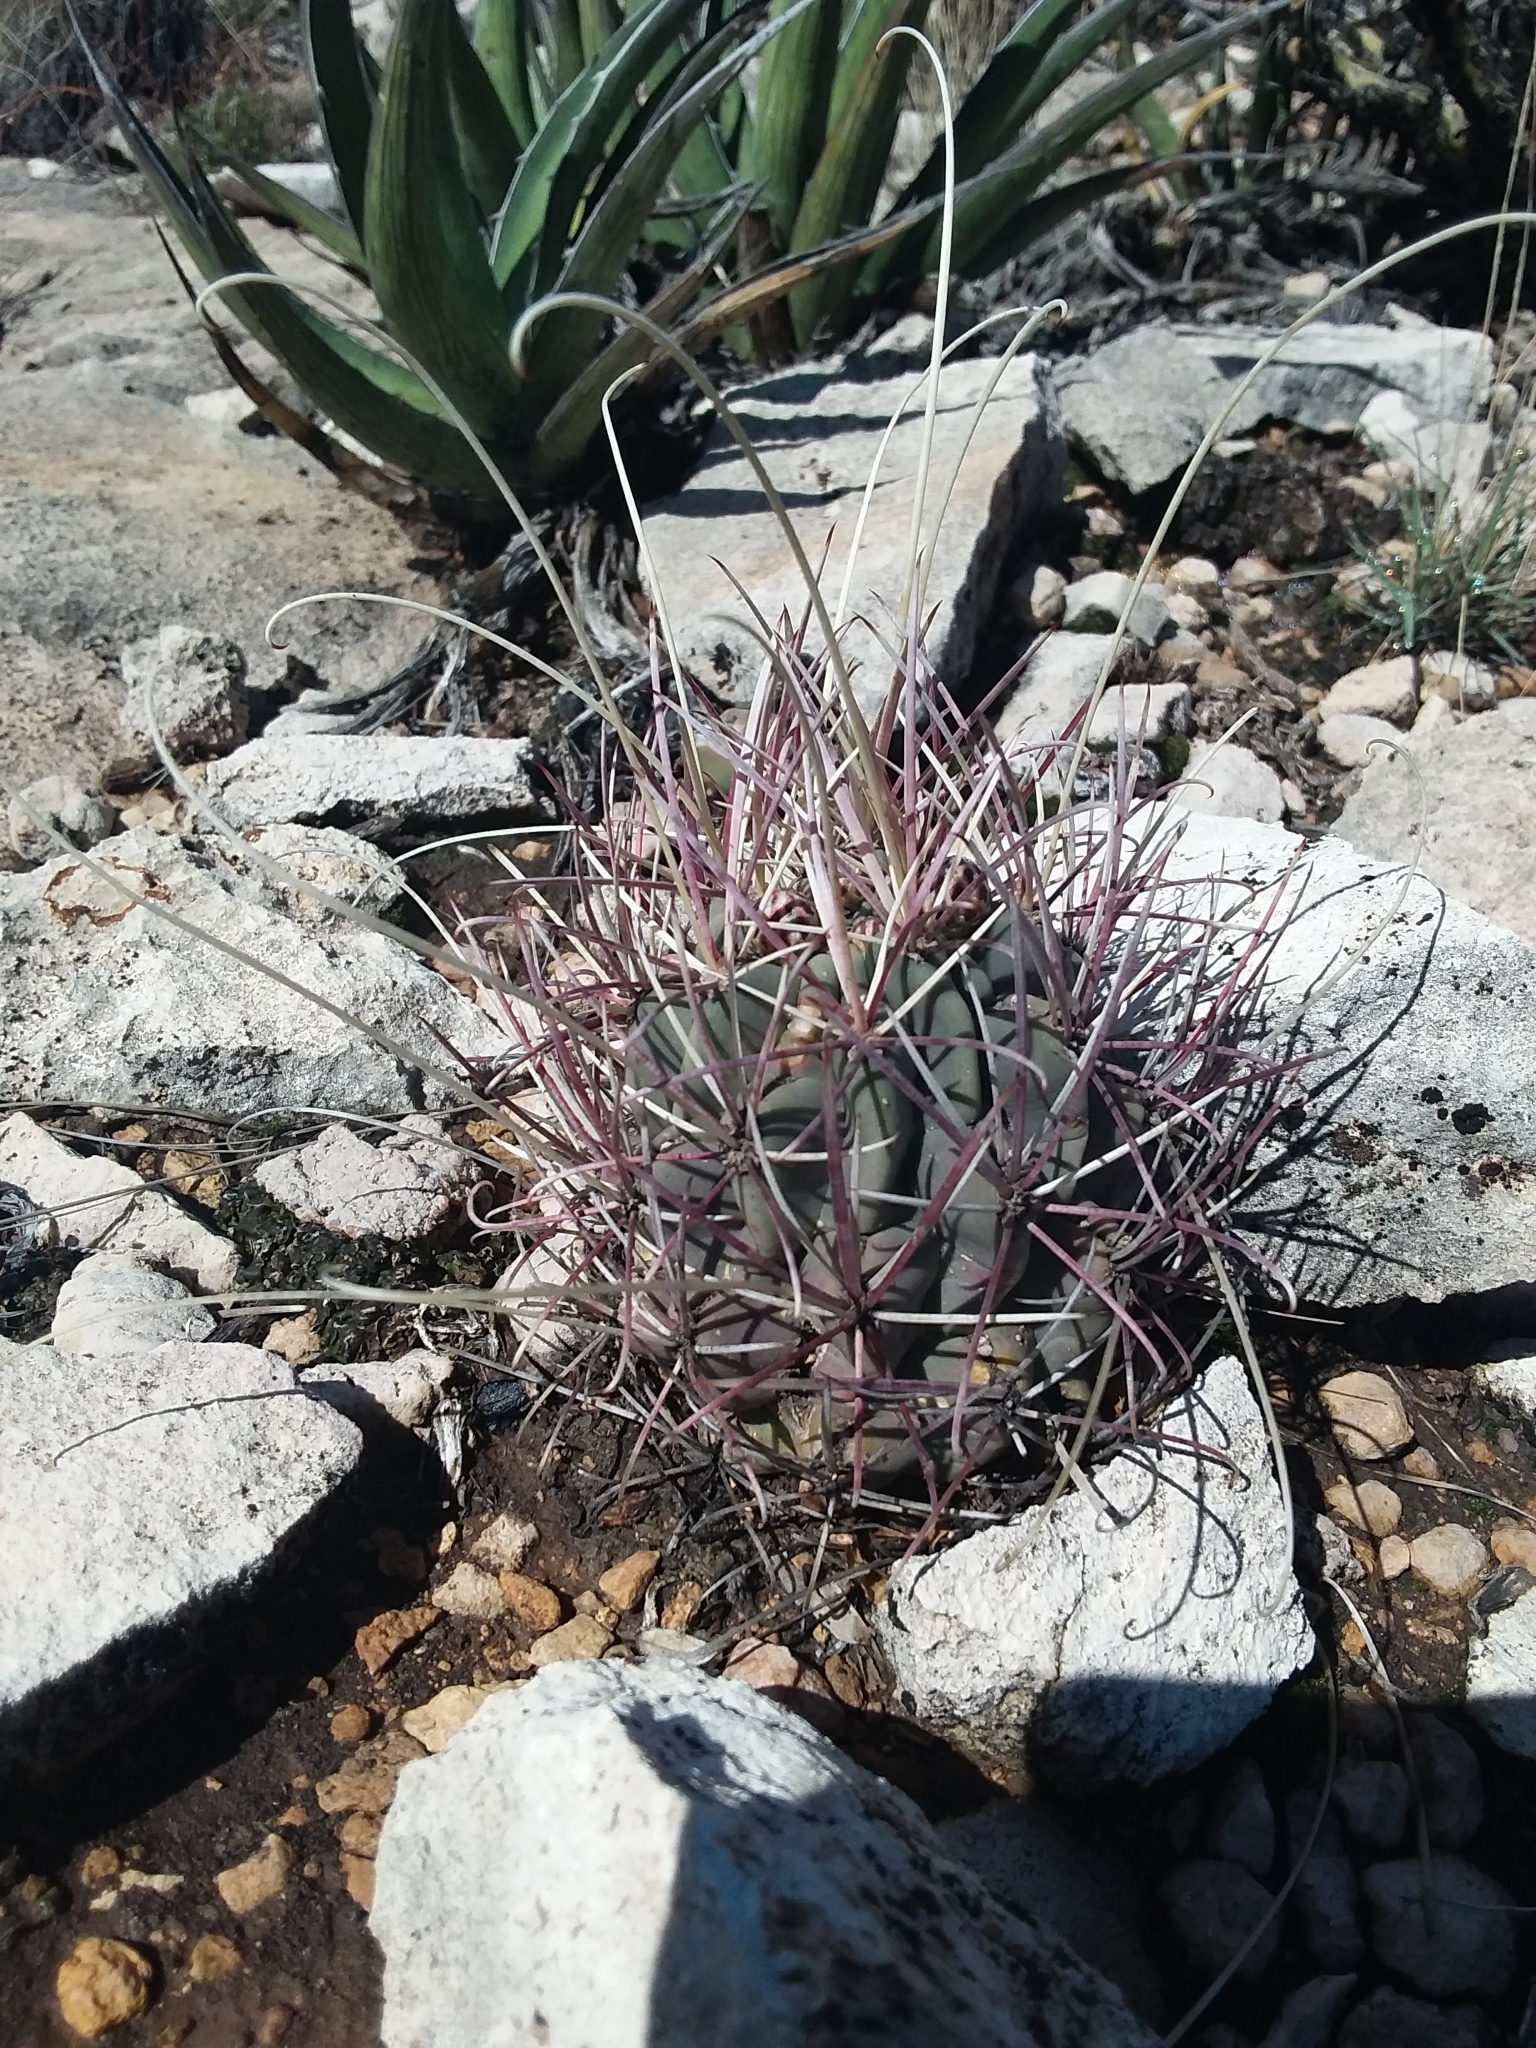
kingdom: Plantae
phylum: Tracheophyta
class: Magnoliopsida
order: Caryophyllales
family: Cactaceae
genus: Ferocactus
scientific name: Ferocactus uncinatus
